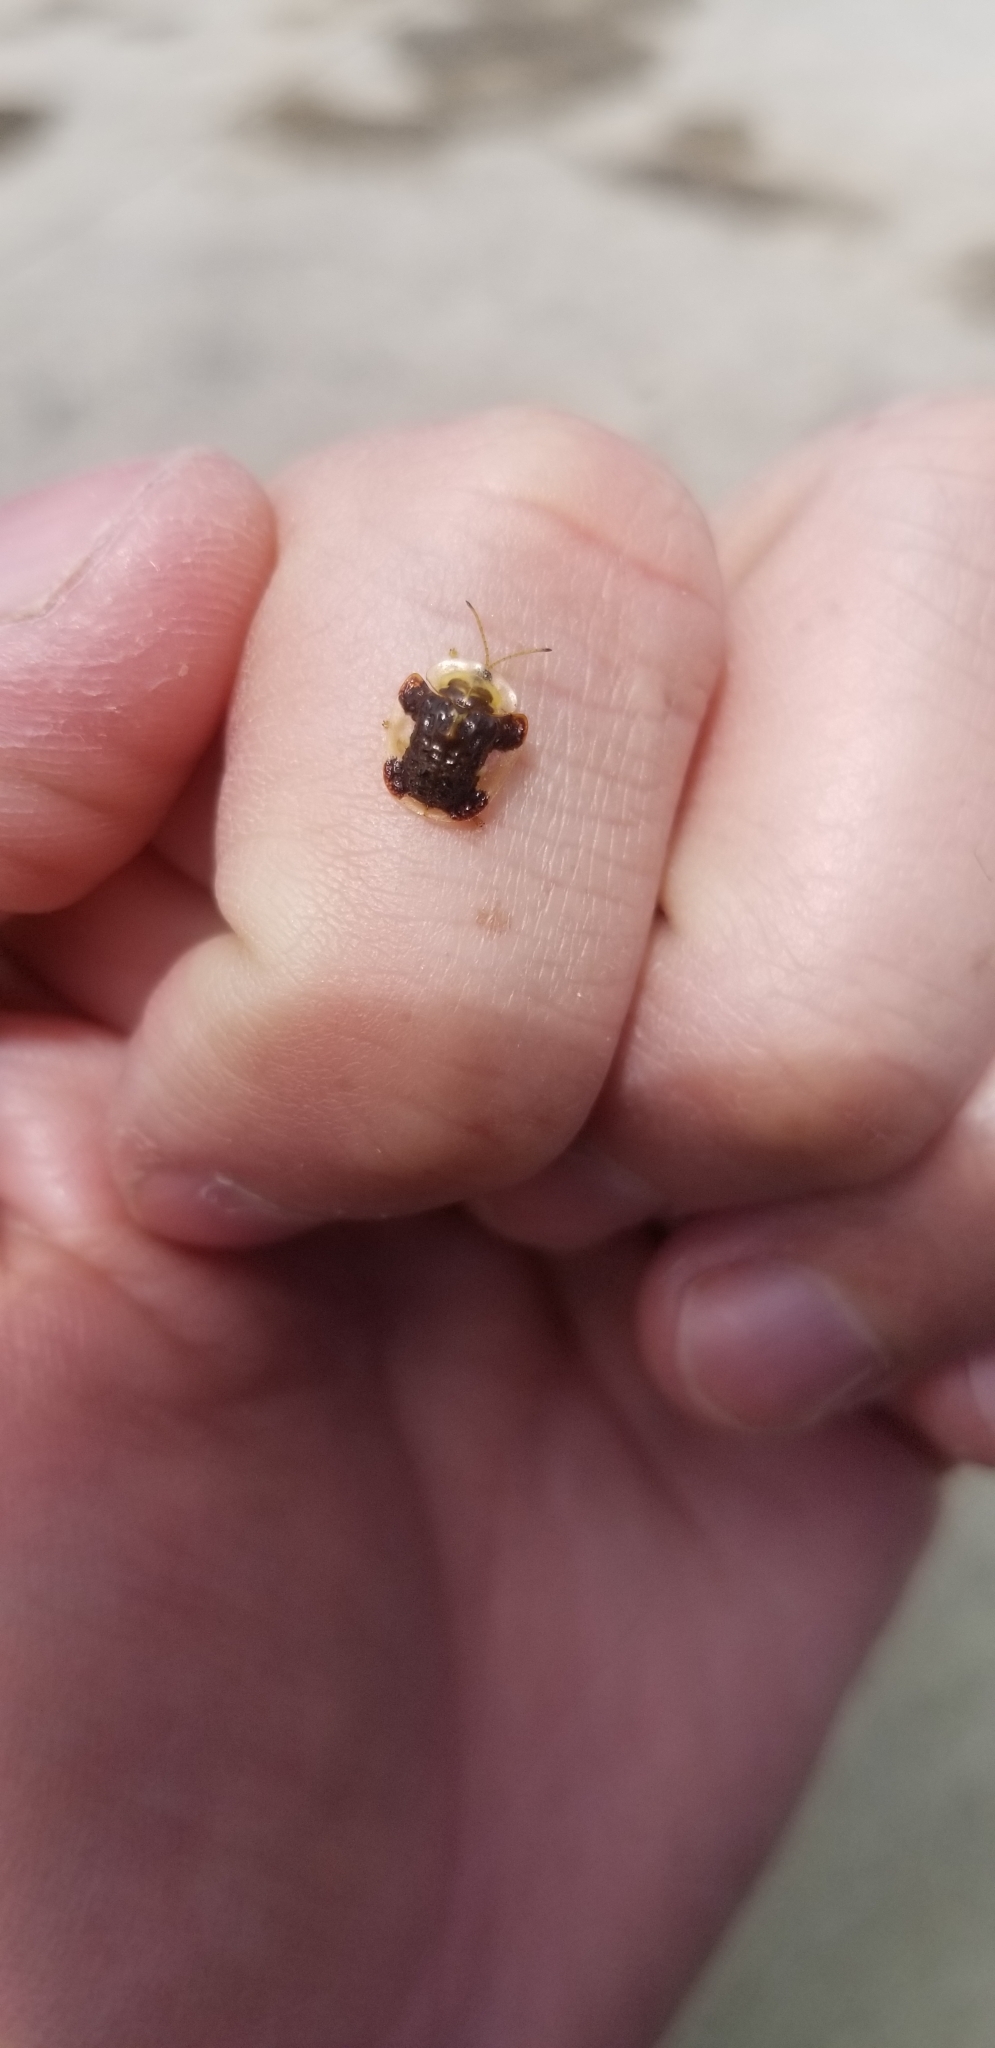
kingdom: Animalia
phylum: Arthropoda
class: Insecta
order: Coleoptera
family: Chrysomelidae
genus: Helocassis
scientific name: Helocassis clavata
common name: Clavate tortoise beetle
